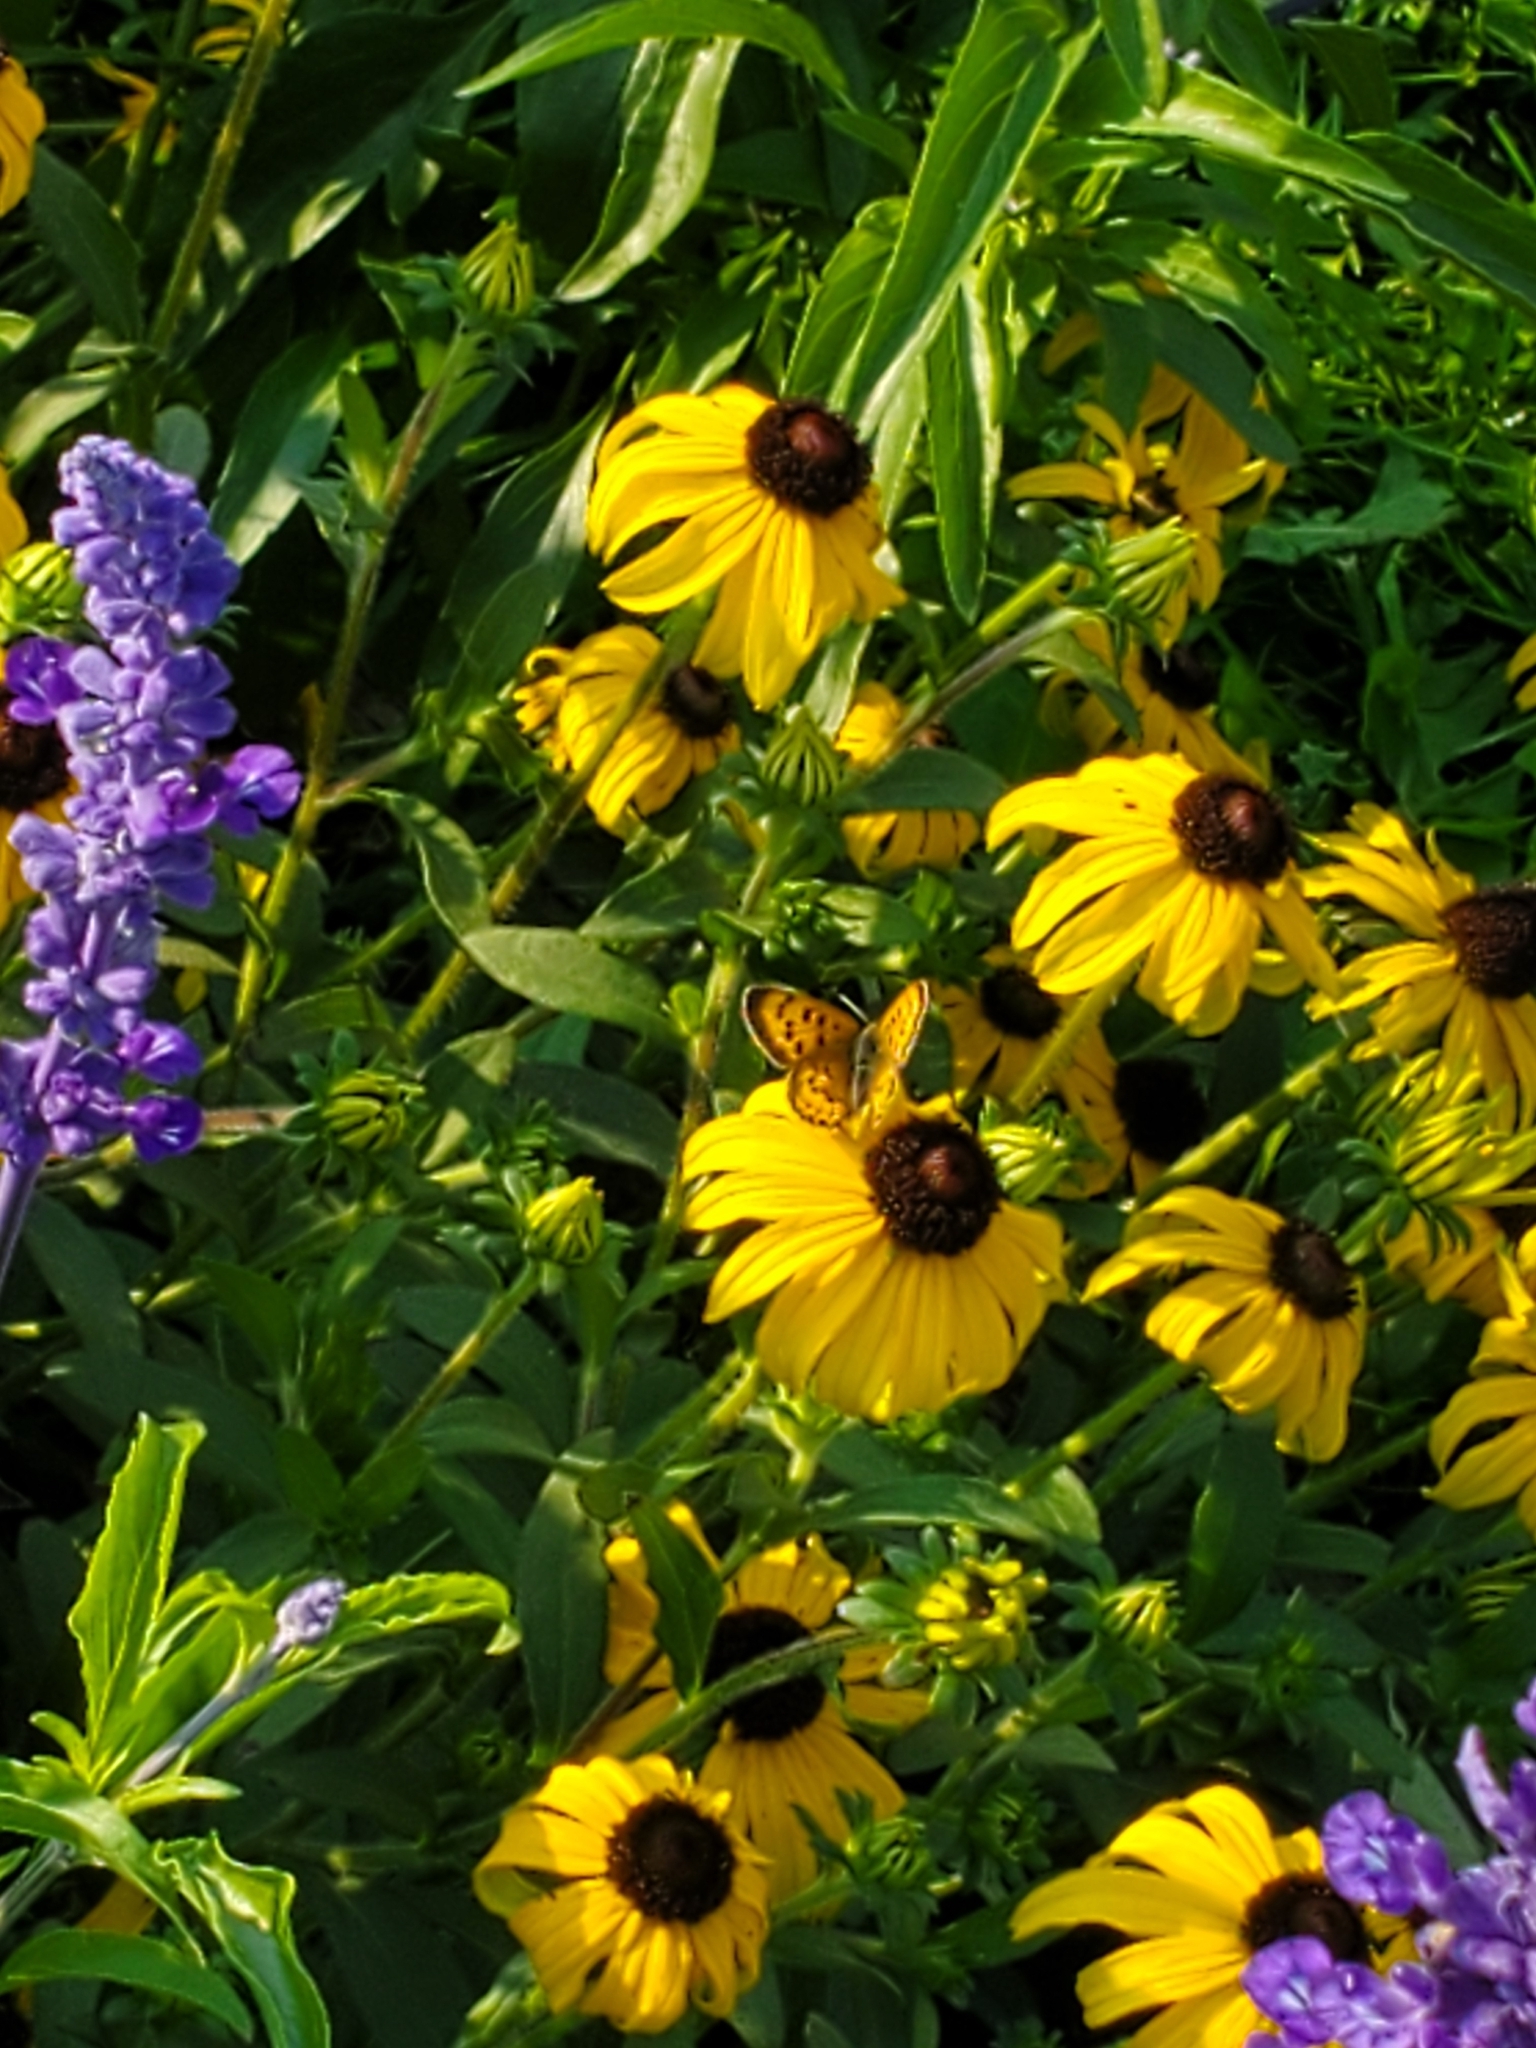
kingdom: Animalia
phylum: Arthropoda
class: Insecta
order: Lepidoptera
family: Lycaenidae
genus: Tharsalea
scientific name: Tharsalea helloides
